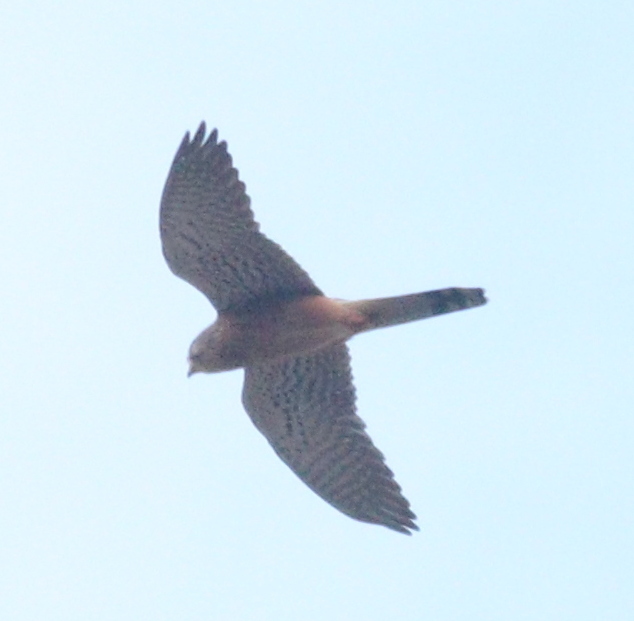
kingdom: Animalia
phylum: Chordata
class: Aves
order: Falconiformes
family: Falconidae
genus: Falco
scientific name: Falco tinnunculus
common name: Common kestrel
